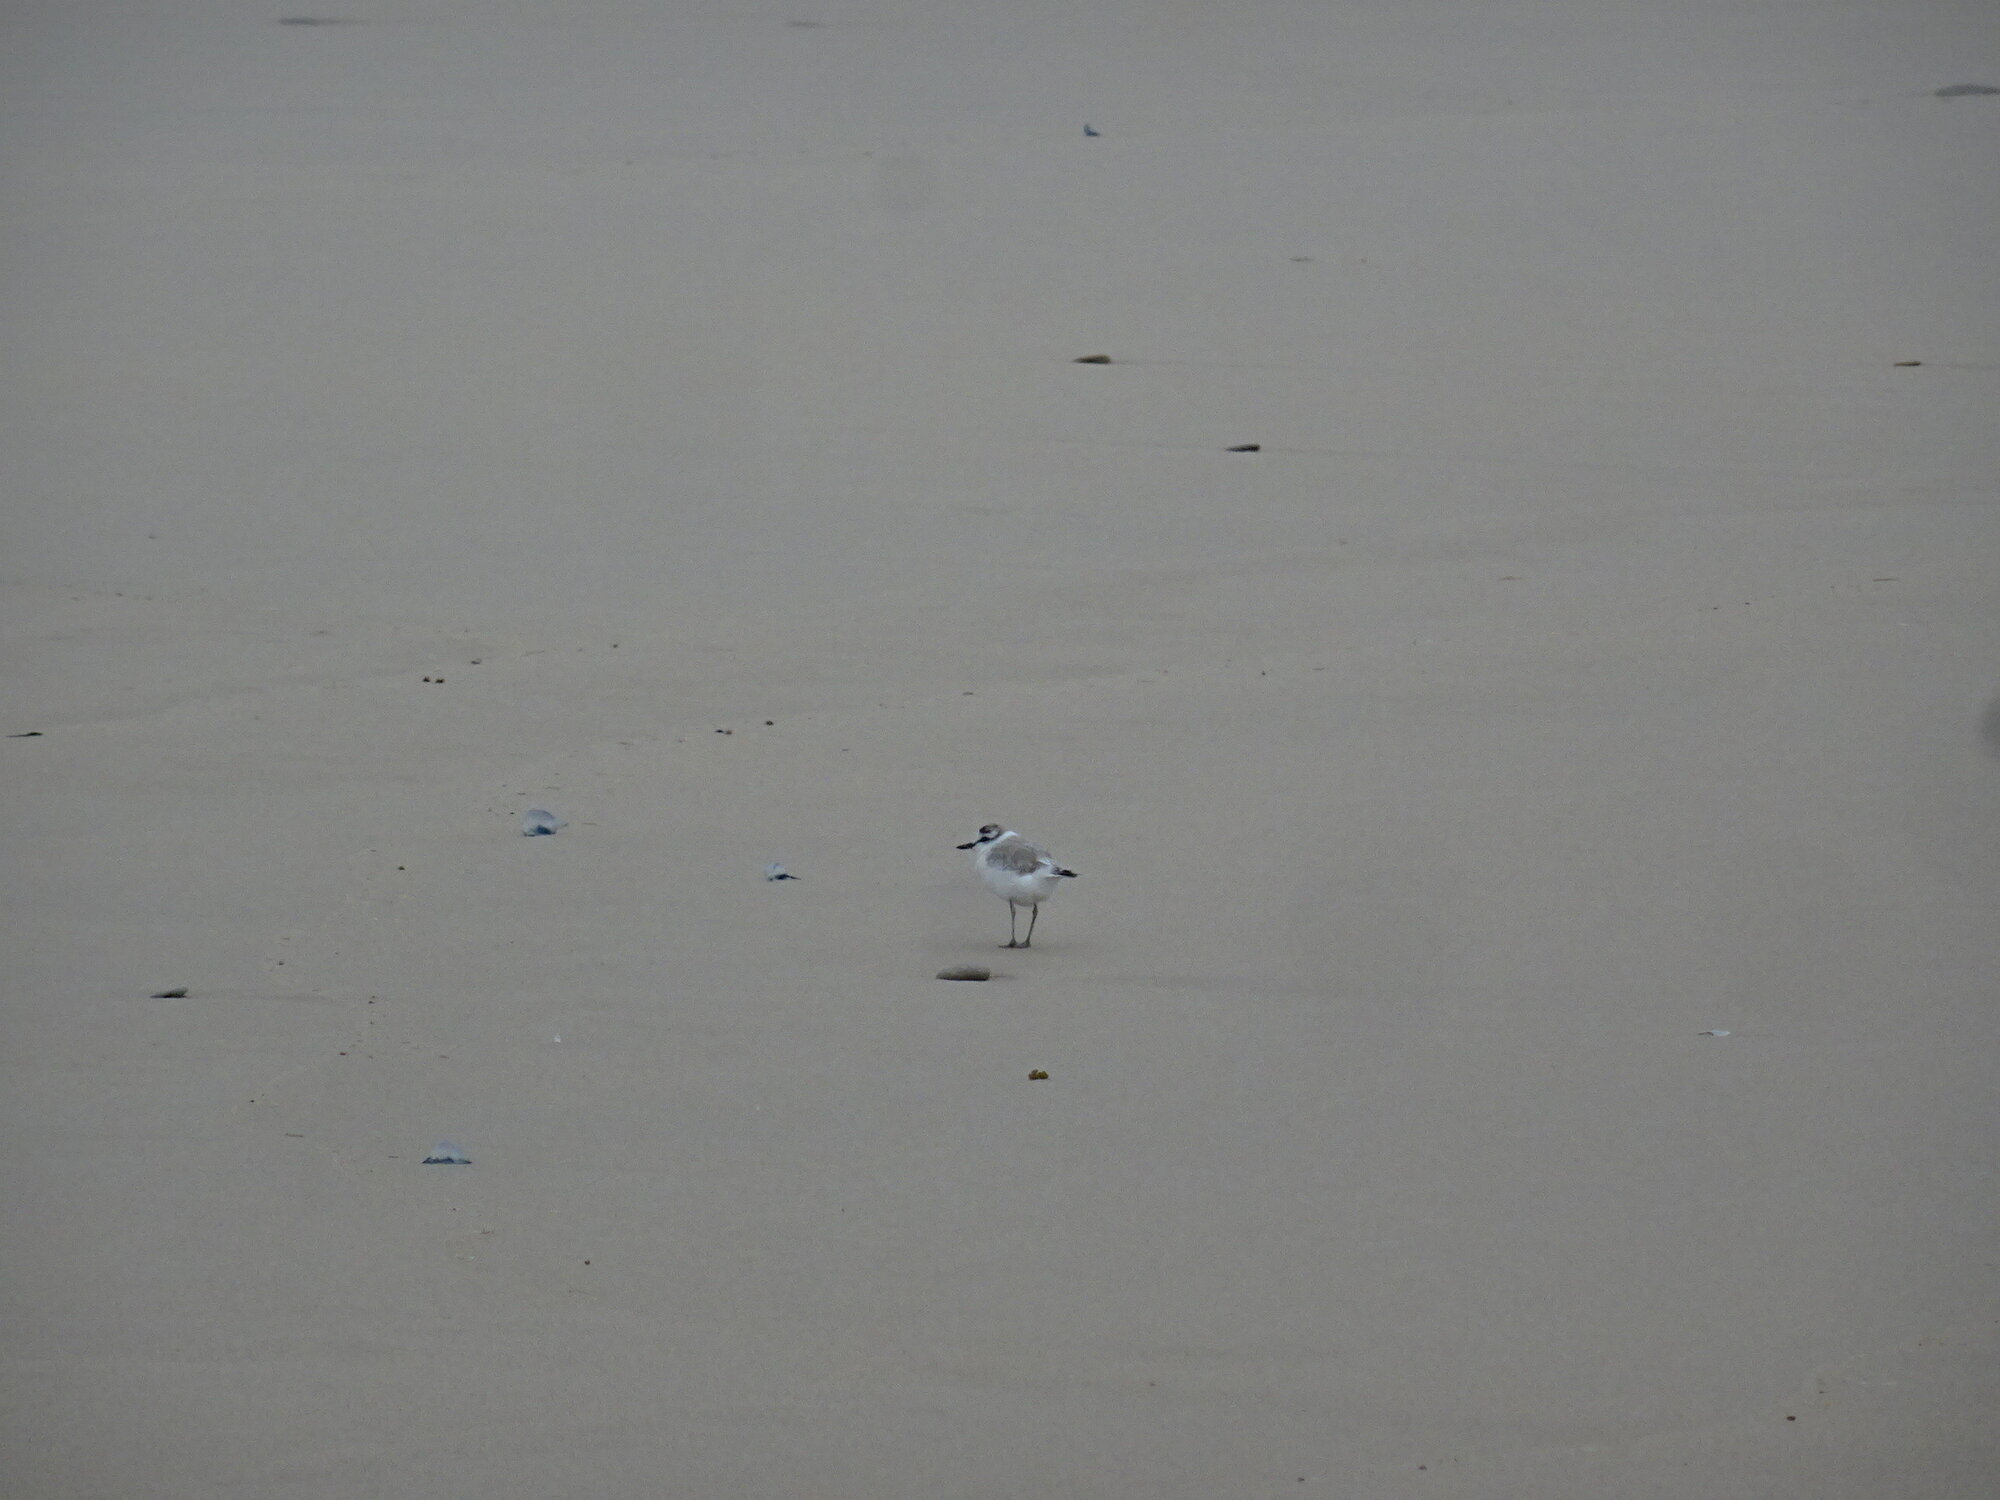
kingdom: Animalia
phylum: Chordata
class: Aves
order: Charadriiformes
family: Charadriidae
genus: Anarhynchus
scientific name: Anarhynchus
